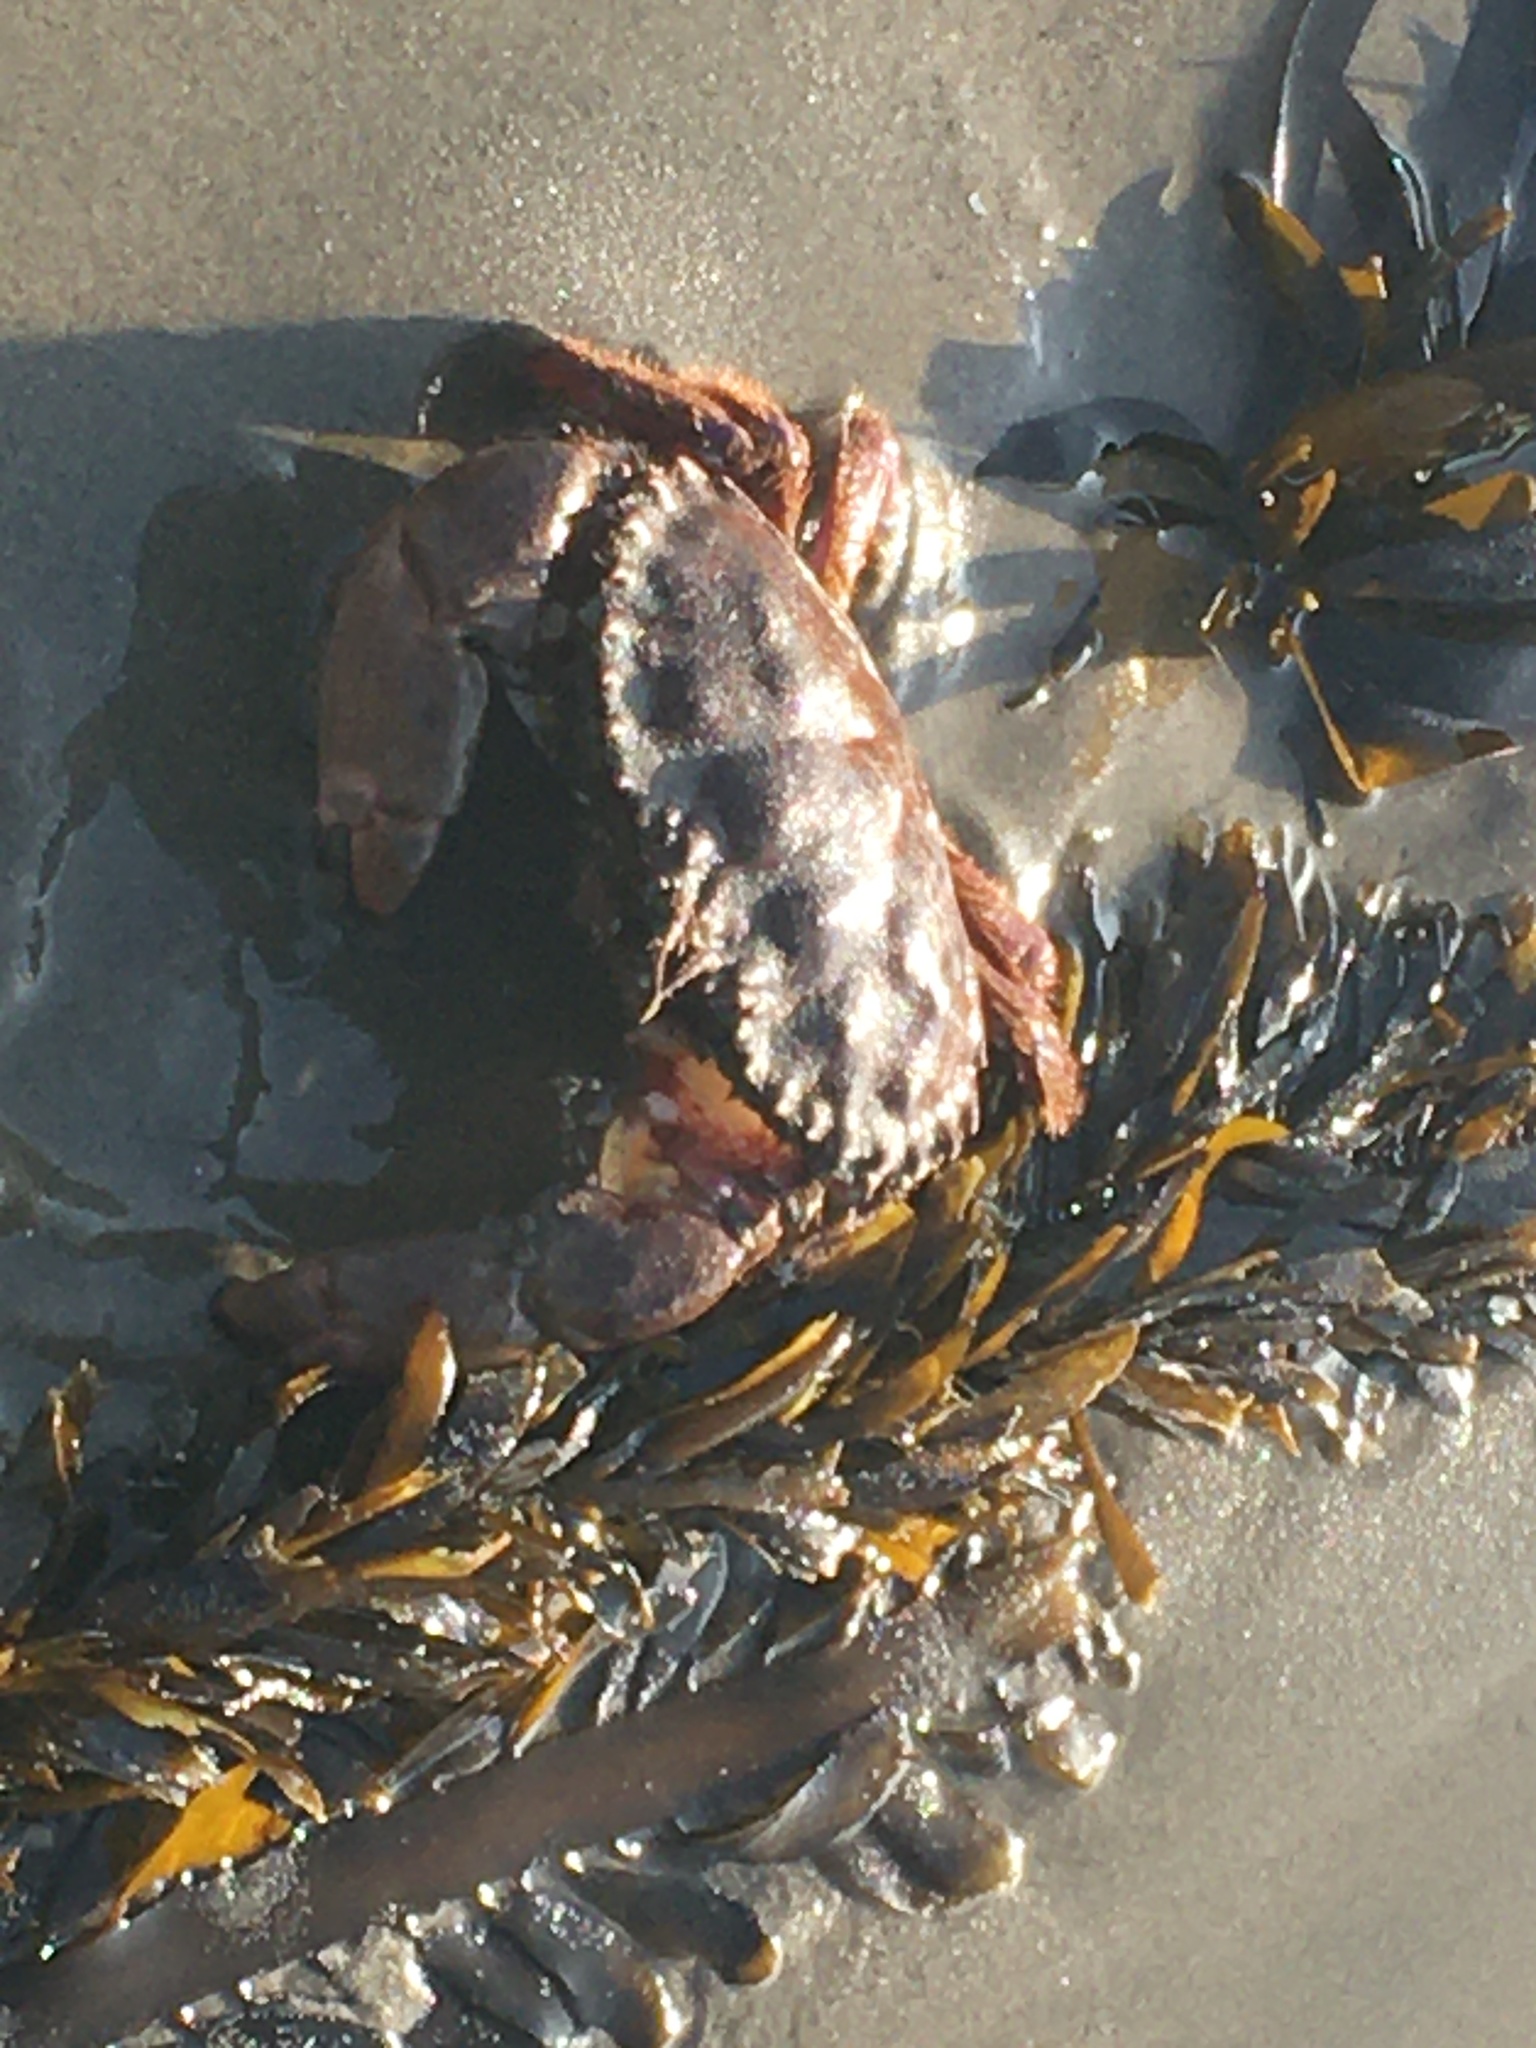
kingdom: Animalia
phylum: Arthropoda
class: Malacostraca
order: Decapoda
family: Cancridae
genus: Romaleon
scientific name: Romaleon antennarium
